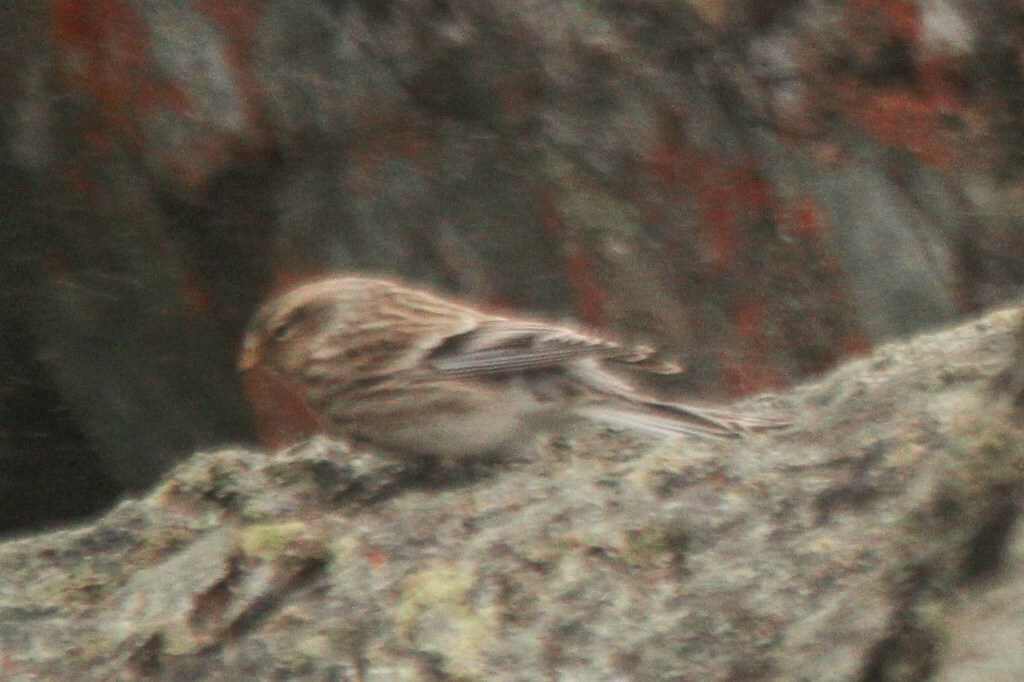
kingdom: Animalia
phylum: Chordata
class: Aves
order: Passeriformes
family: Fringillidae
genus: Linaria
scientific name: Linaria flavirostris
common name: Twite
